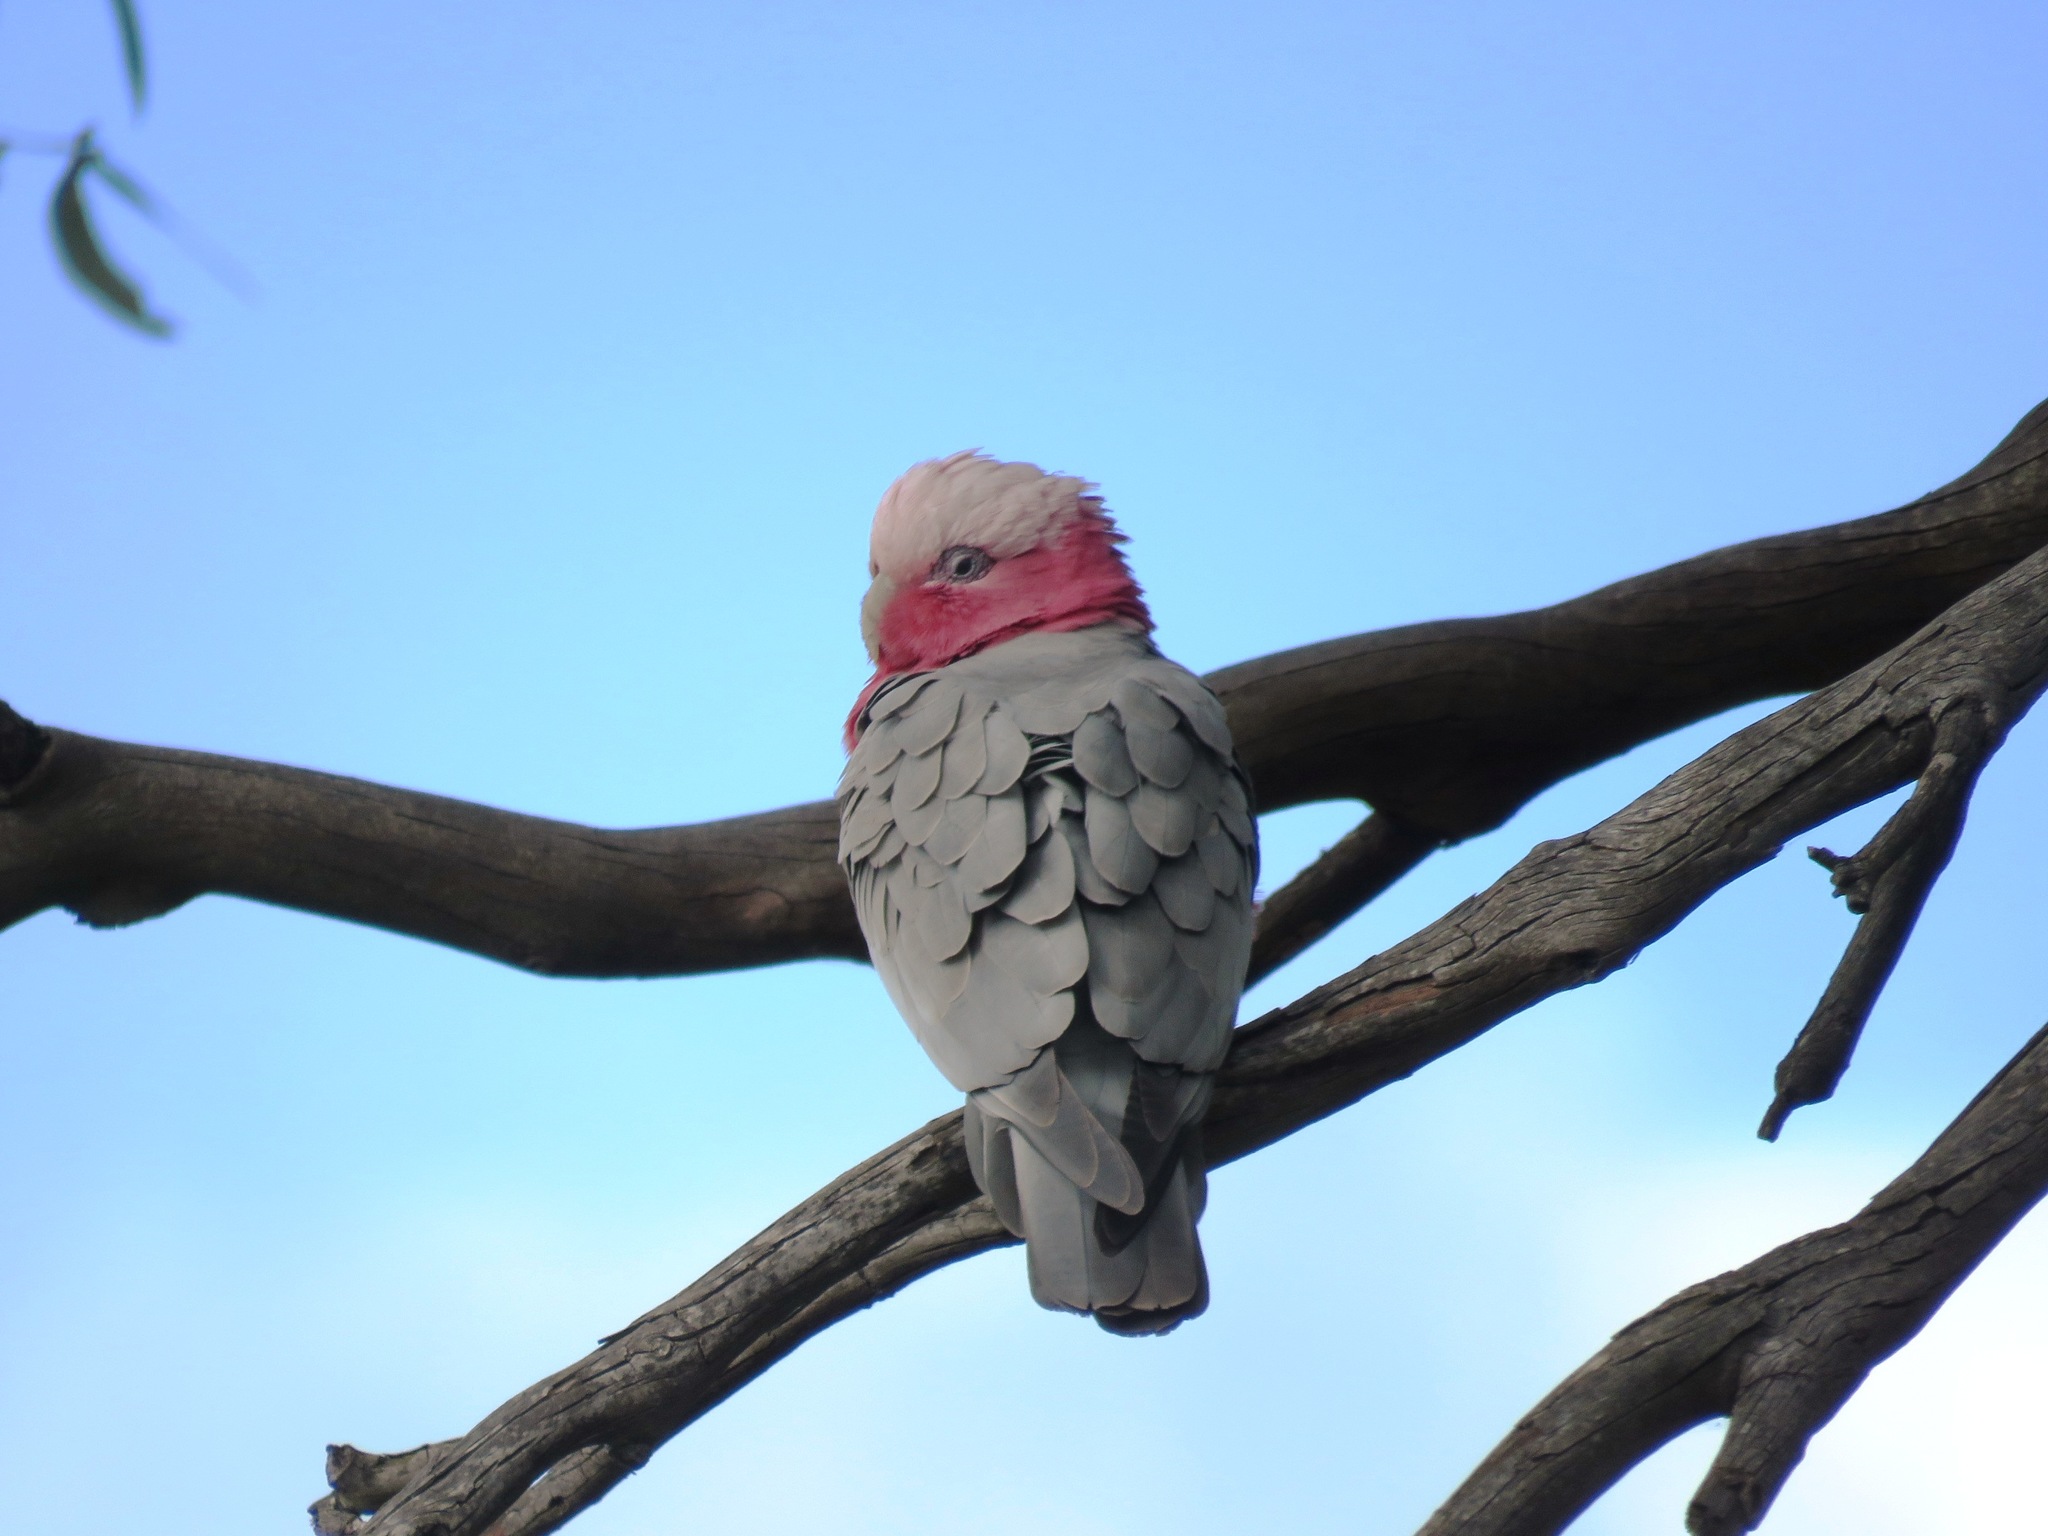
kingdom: Animalia
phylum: Chordata
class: Aves
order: Psittaciformes
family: Psittacidae
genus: Eolophus
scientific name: Eolophus roseicapilla
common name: Galah
